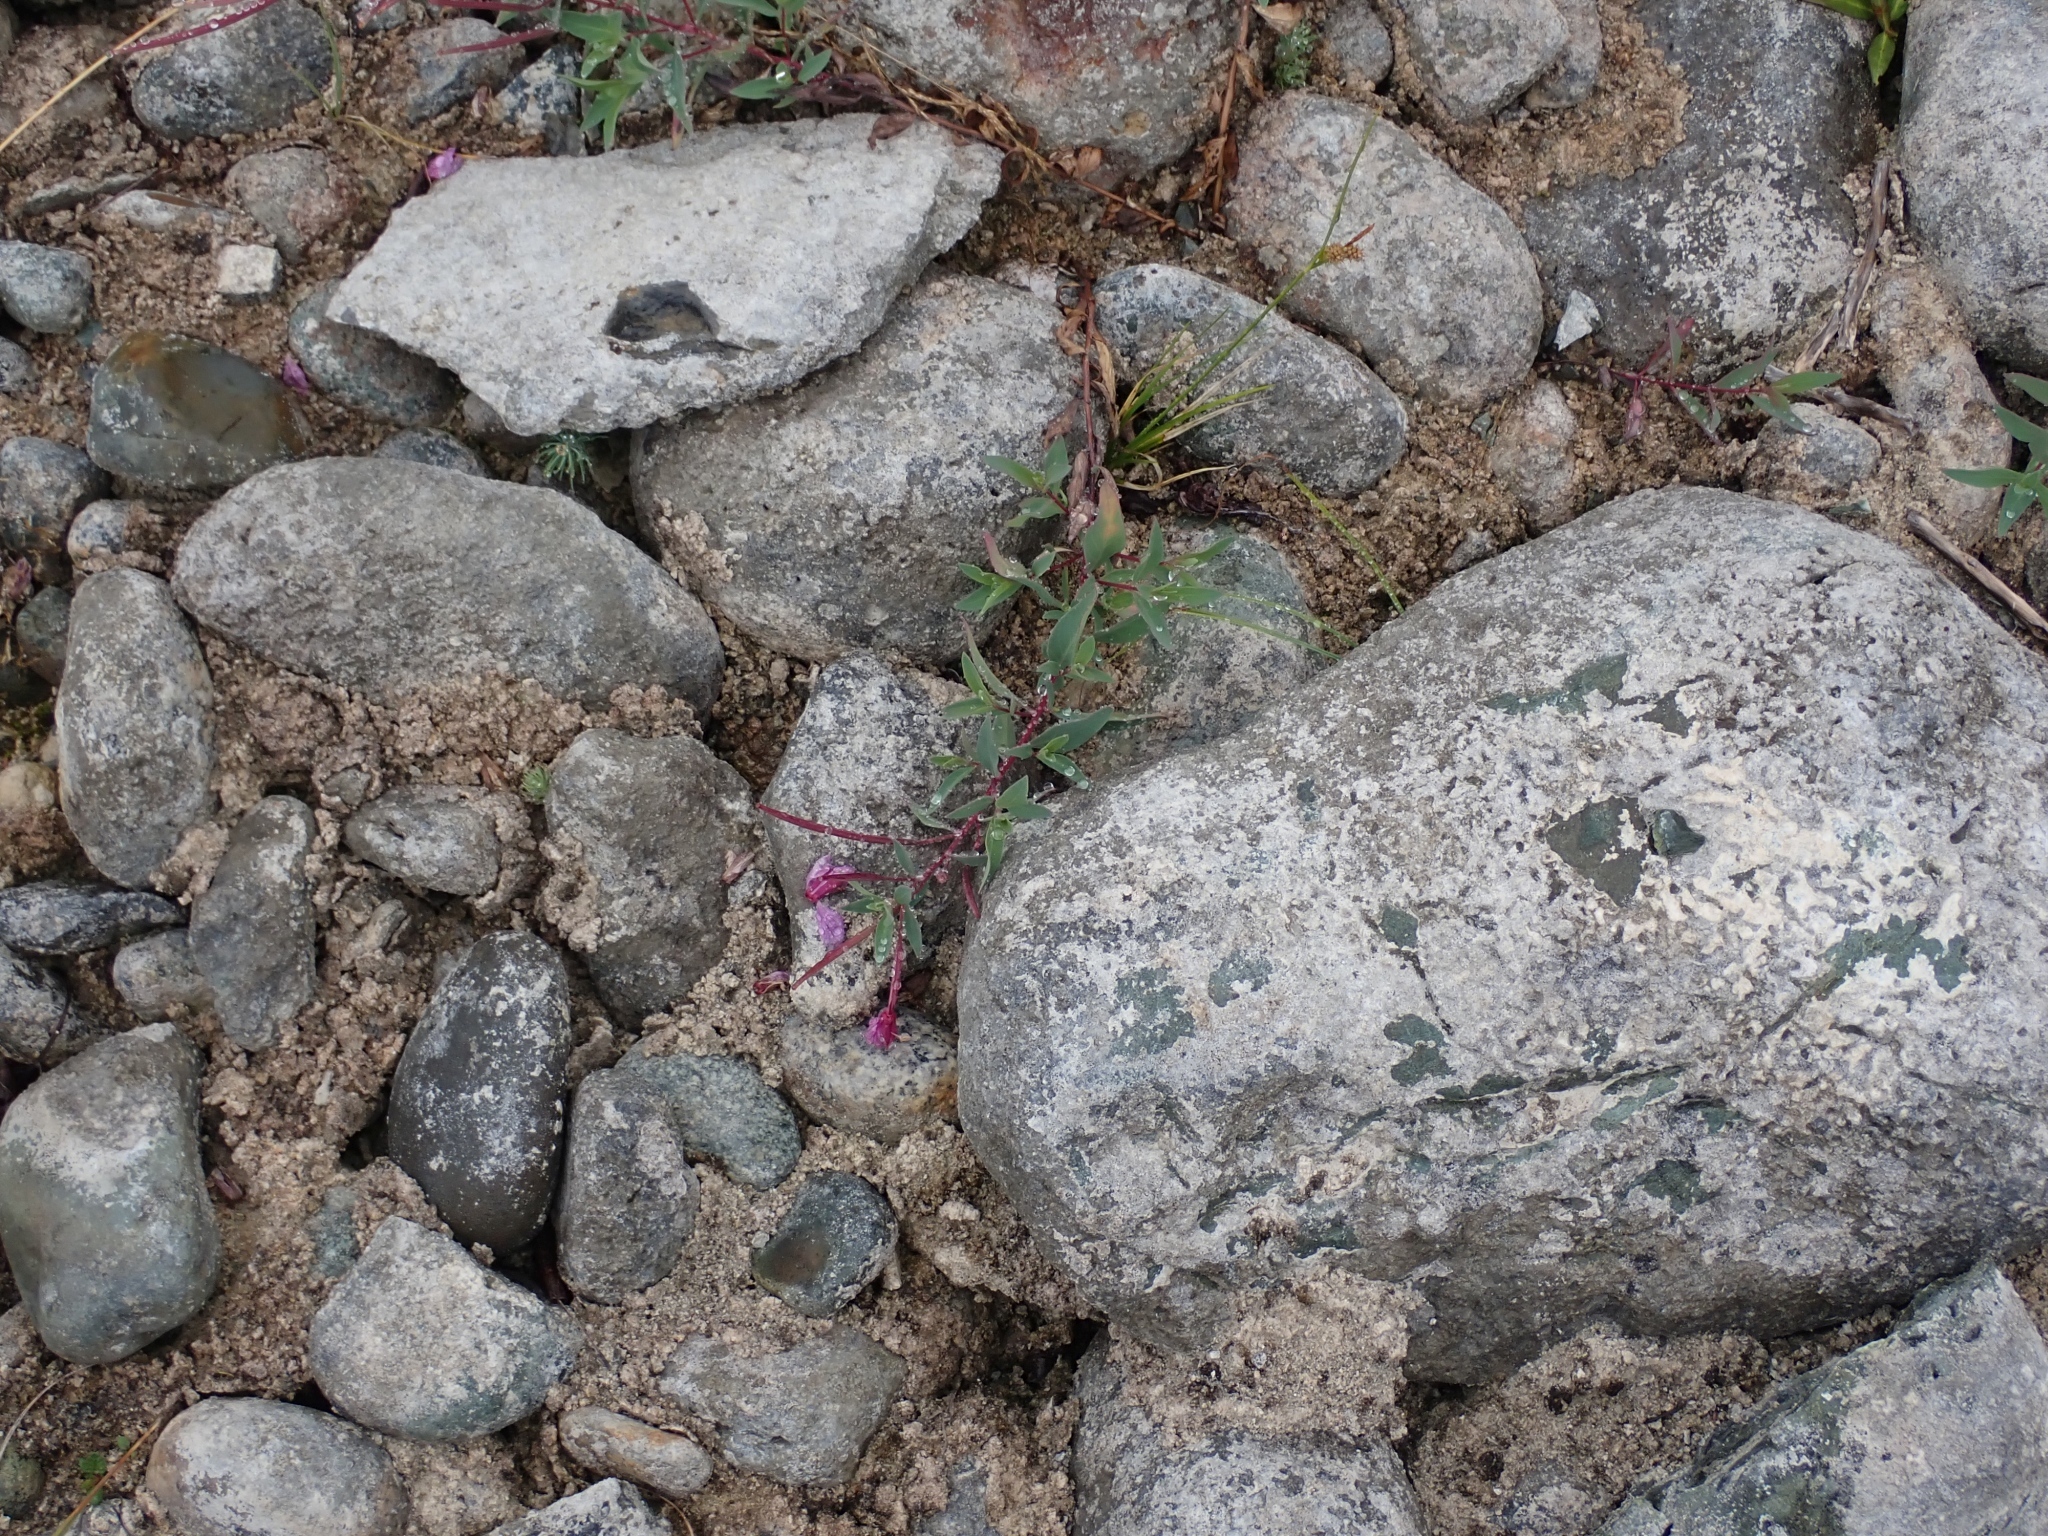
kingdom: Plantae
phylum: Tracheophyta
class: Magnoliopsida
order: Myrtales
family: Onagraceae
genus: Chamaenerion
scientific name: Chamaenerion latifolium
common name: Dwarf fireweed
